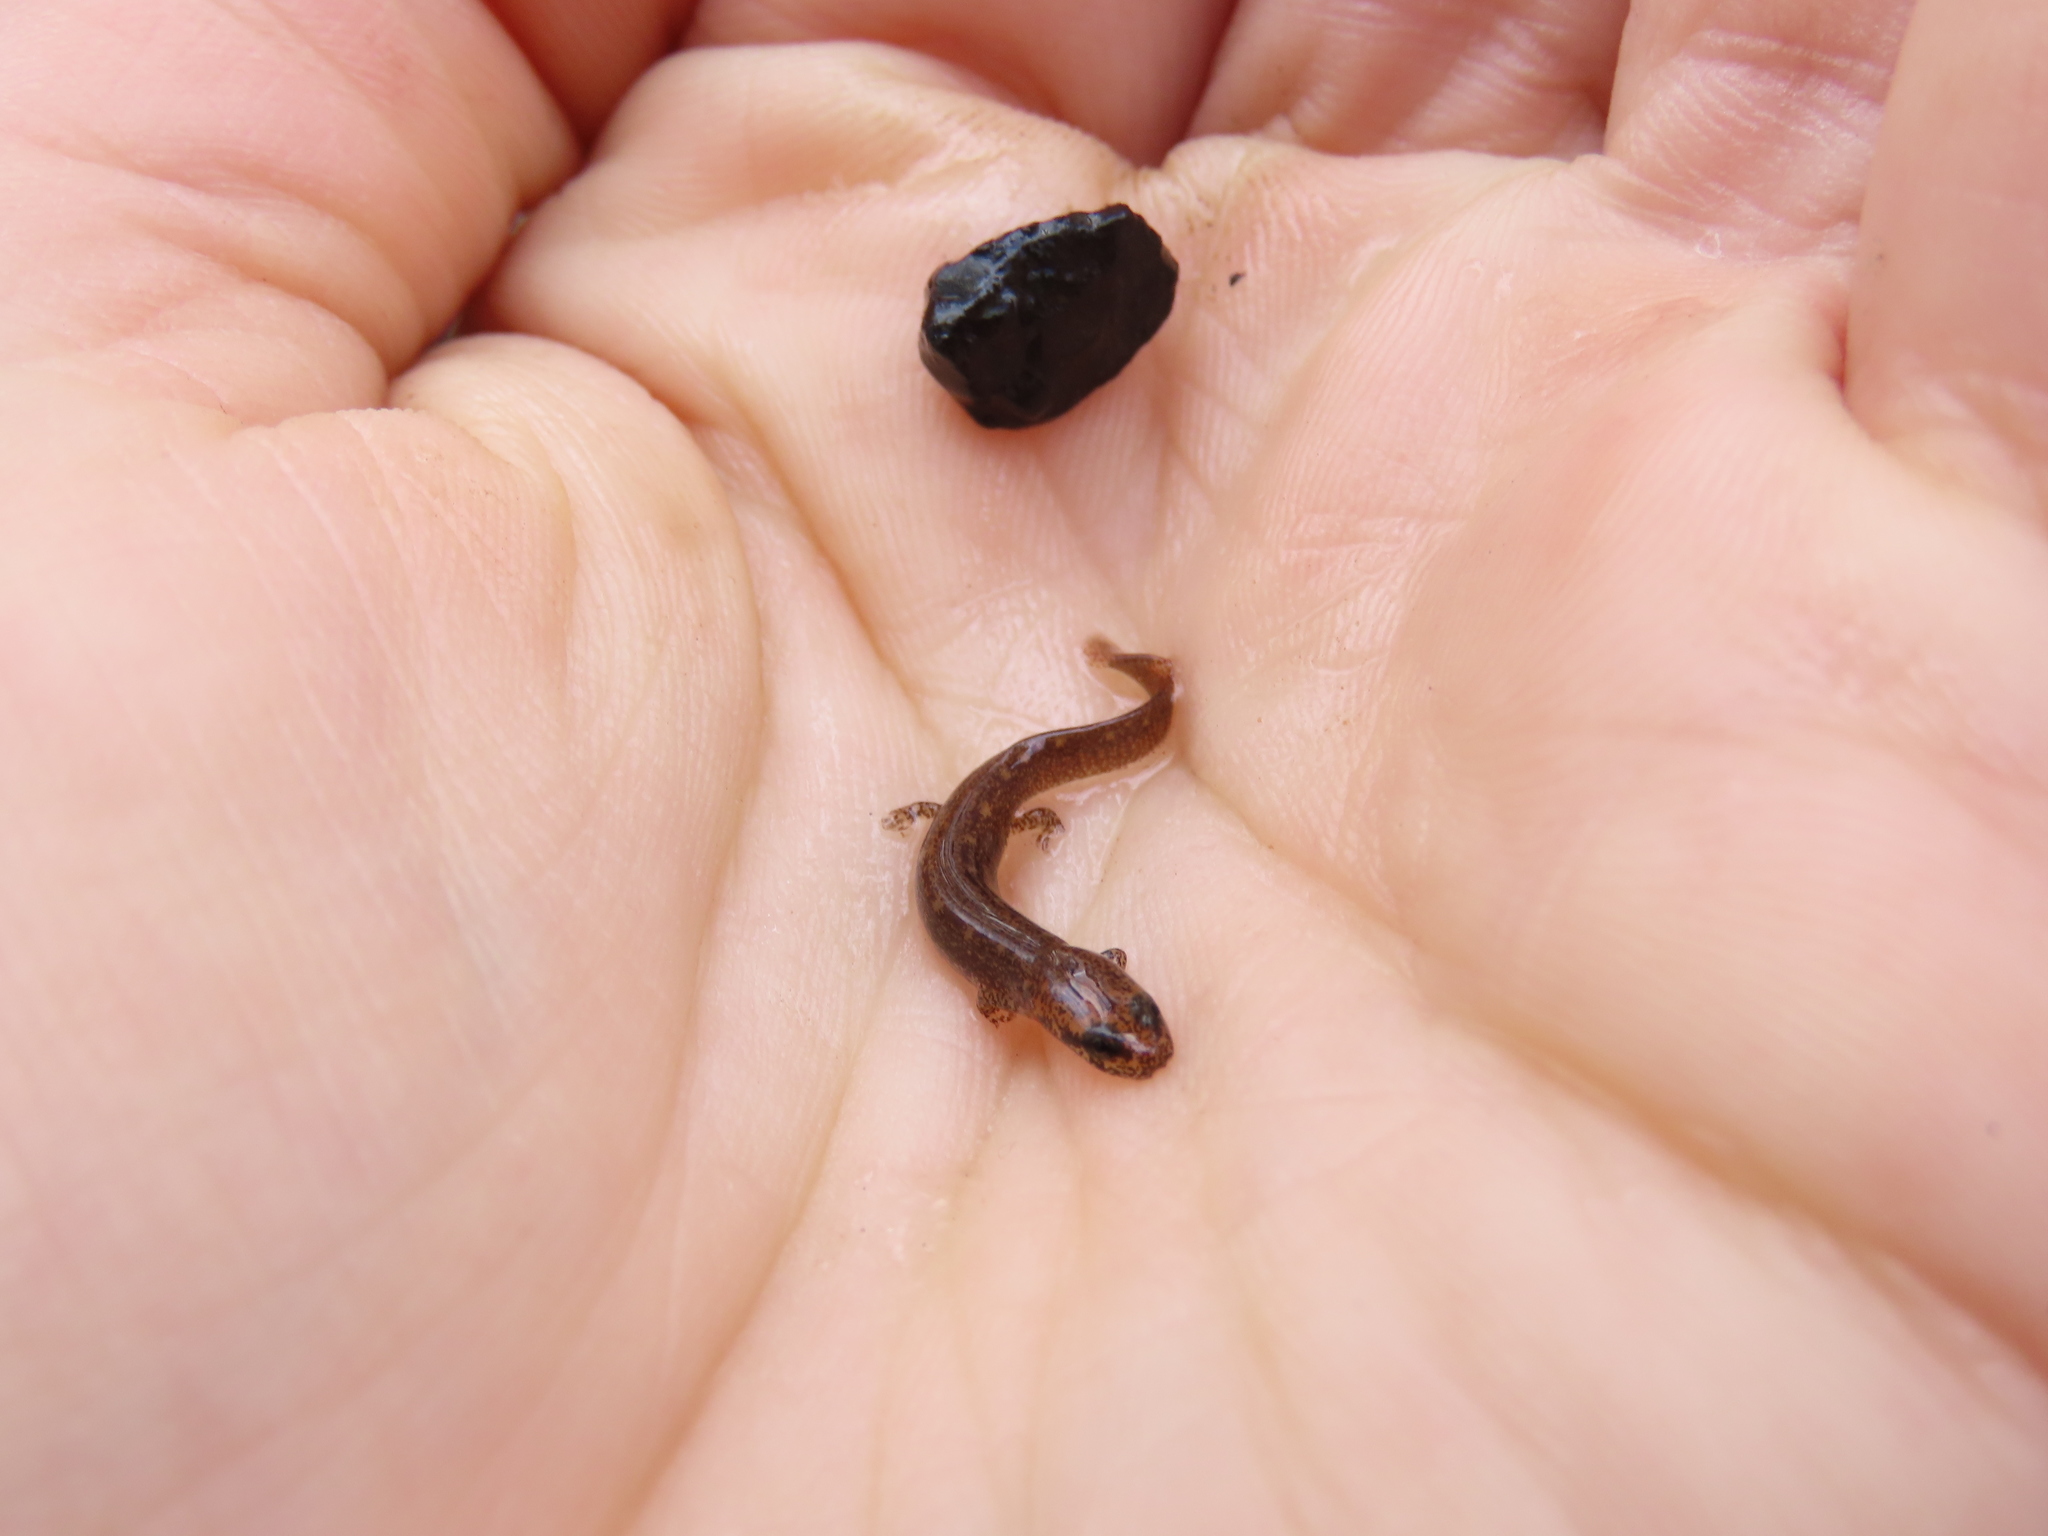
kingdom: Animalia
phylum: Chordata
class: Amphibia
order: Caudata
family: Plethodontidae
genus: Eurycea
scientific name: Eurycea bislineata
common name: Northern two-lined salamander
